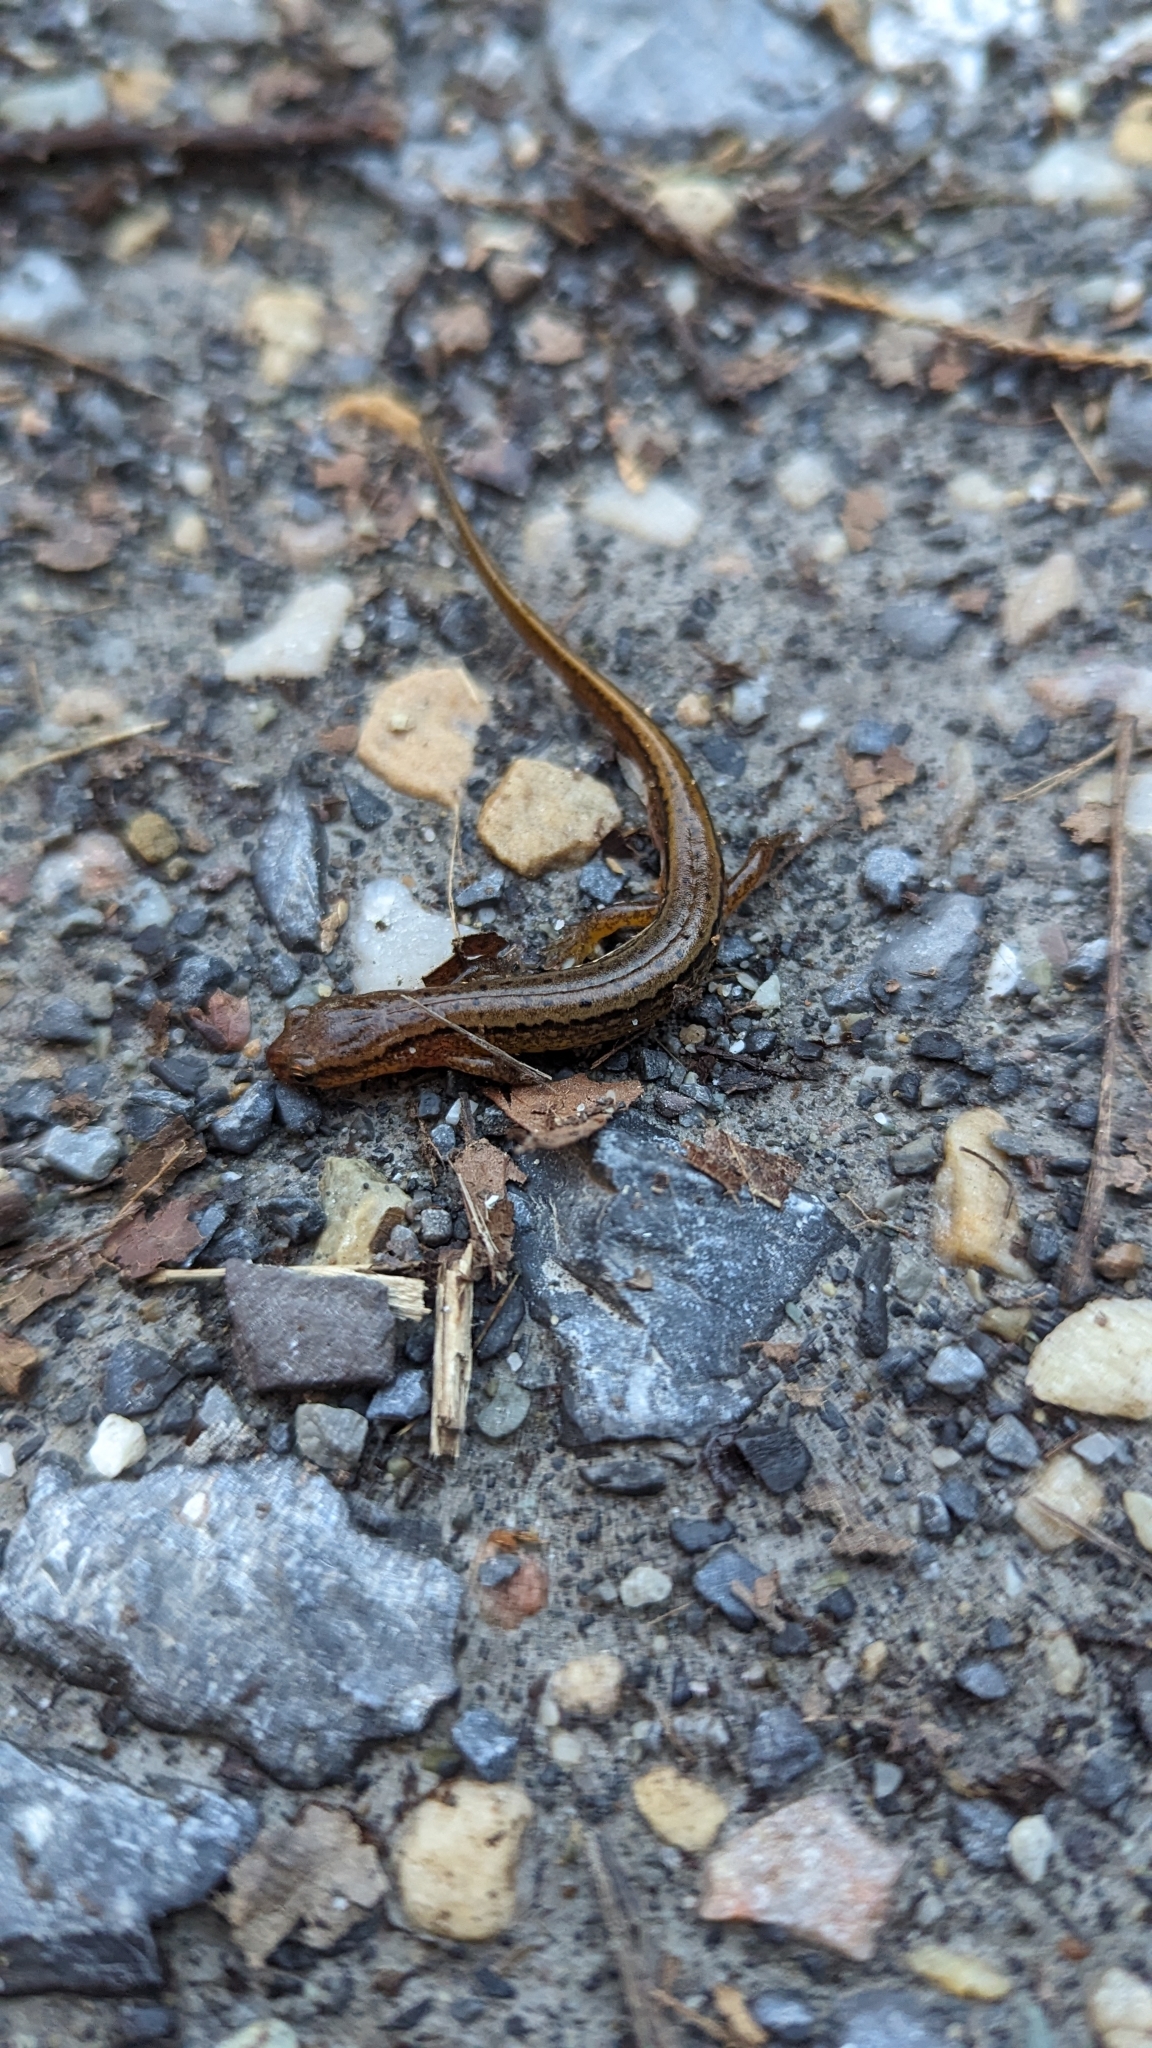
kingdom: Animalia
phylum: Chordata
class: Amphibia
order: Caudata
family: Plethodontidae
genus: Eurycea
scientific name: Eurycea cirrigera
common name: Southern two-lined salamander
